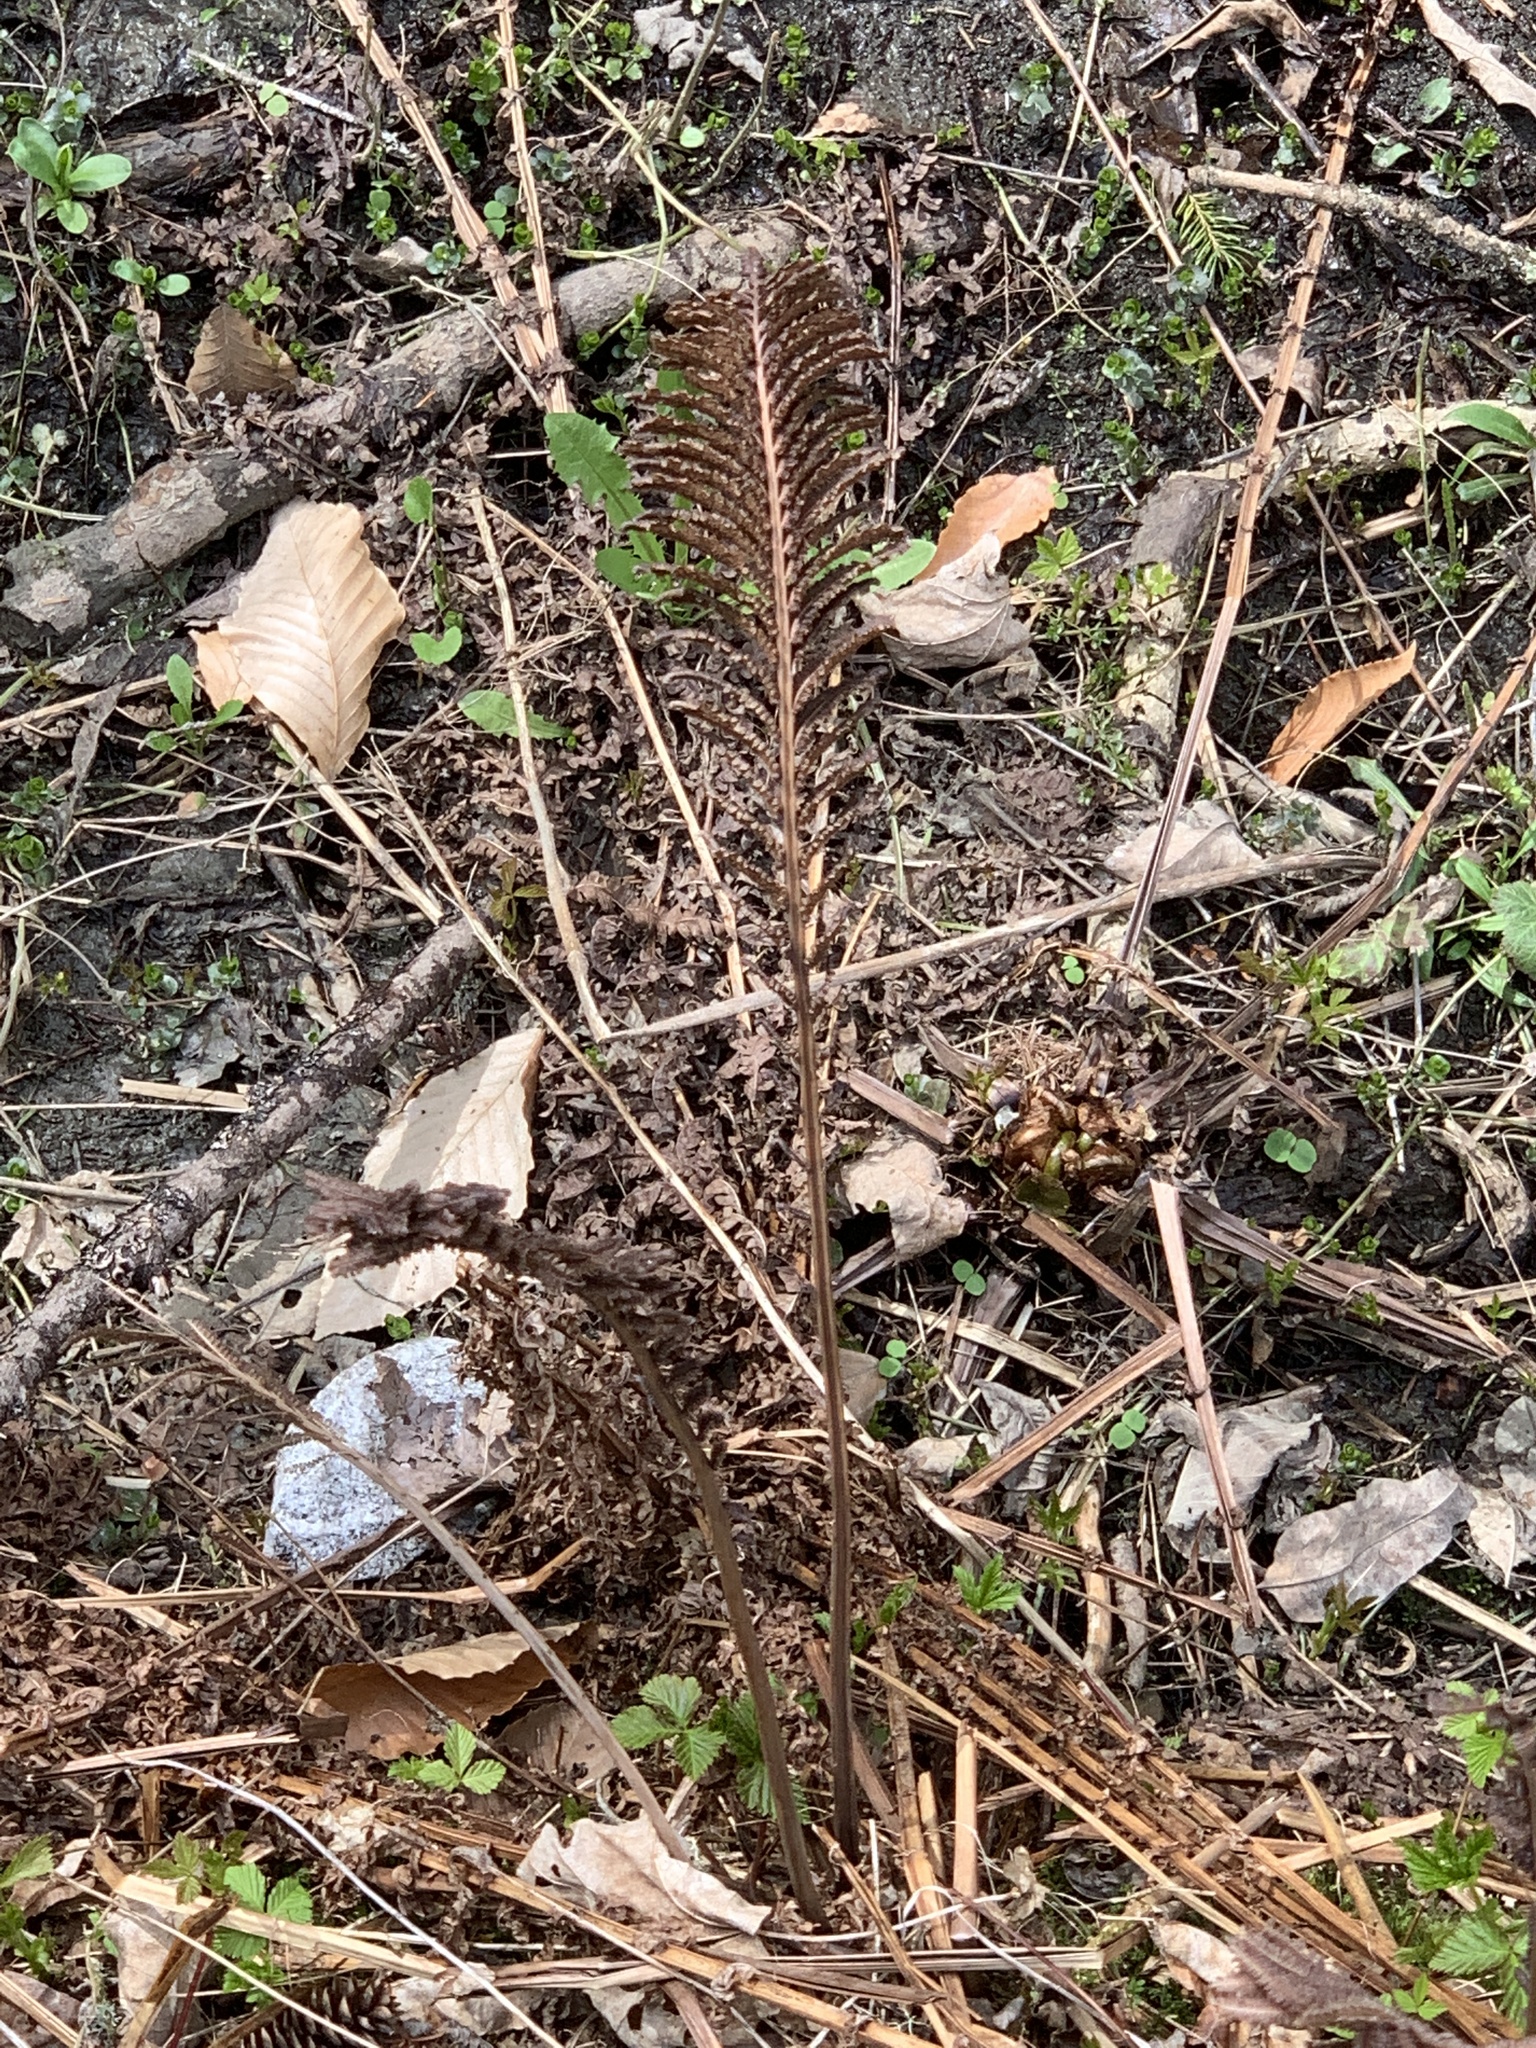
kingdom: Plantae
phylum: Tracheophyta
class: Polypodiopsida
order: Polypodiales
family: Onocleaceae
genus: Matteuccia
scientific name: Matteuccia struthiopteris
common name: Ostrich fern
